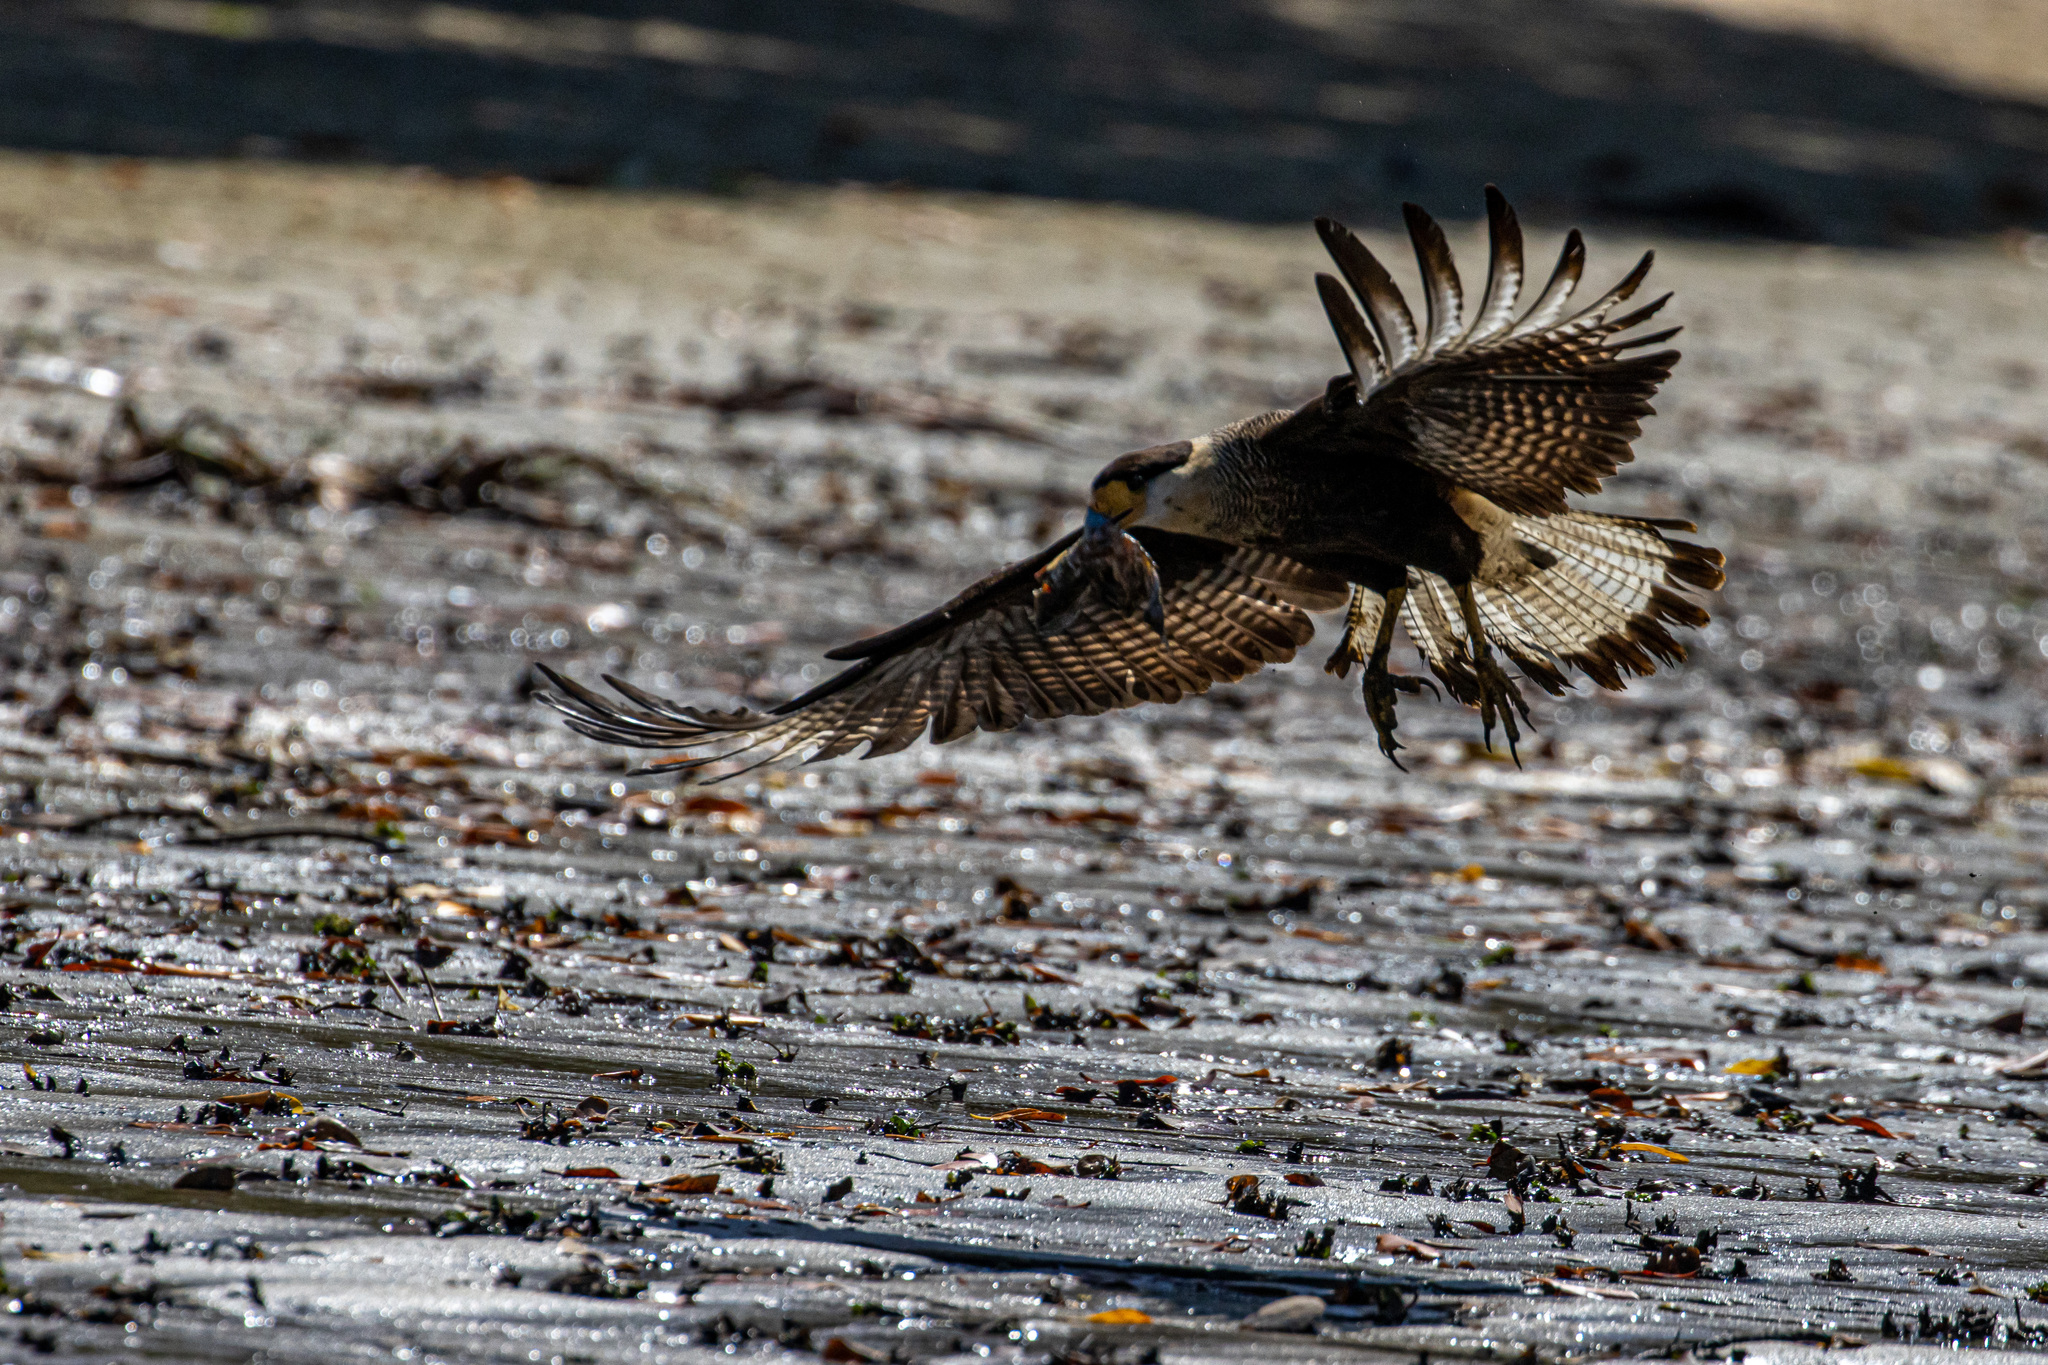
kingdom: Animalia
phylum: Chordata
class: Aves
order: Falconiformes
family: Falconidae
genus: Caracara
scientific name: Caracara plancus
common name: Southern caracara
